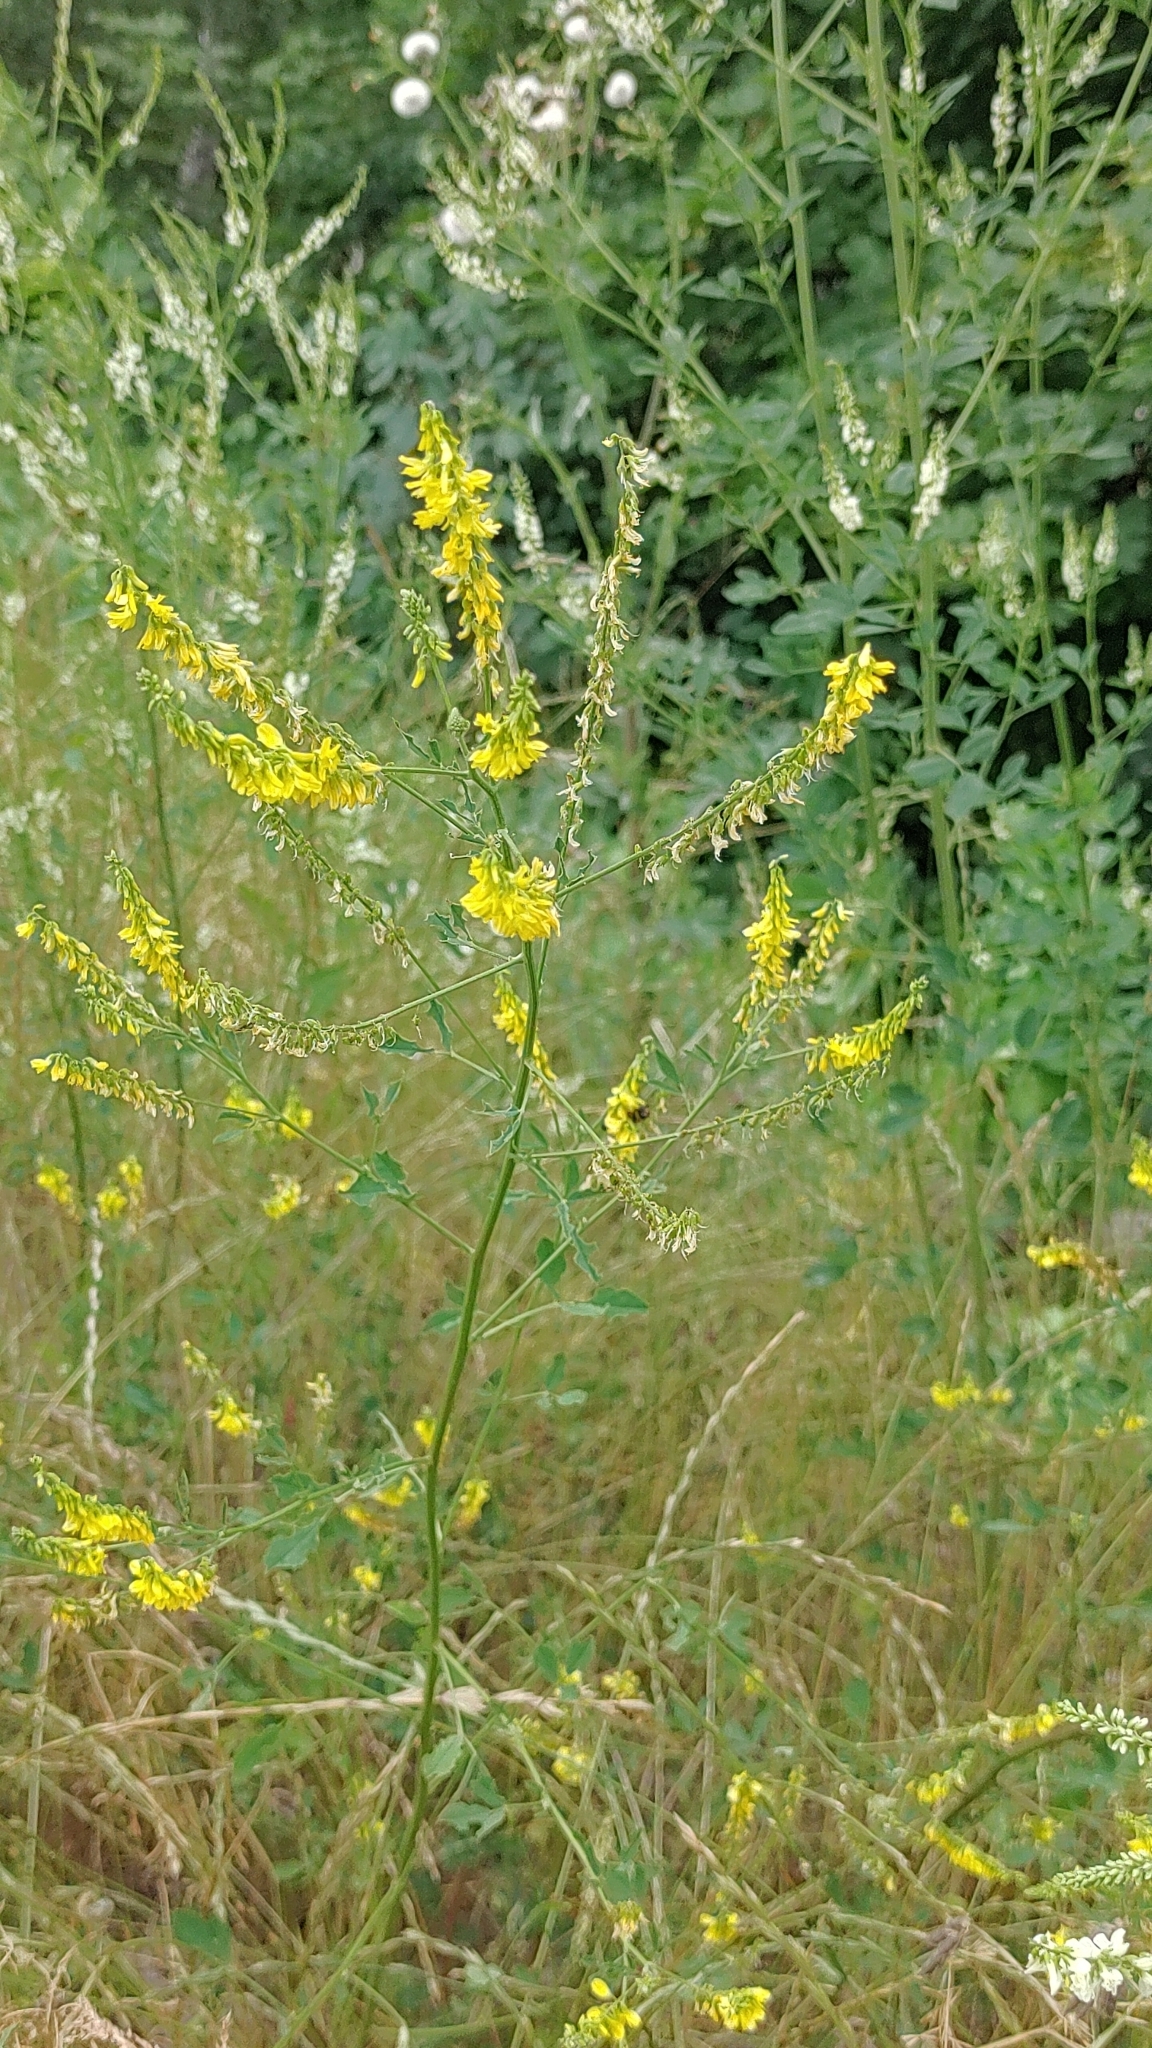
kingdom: Plantae
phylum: Tracheophyta
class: Magnoliopsida
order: Fabales
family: Fabaceae
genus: Melilotus
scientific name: Melilotus officinalis
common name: Sweetclover
